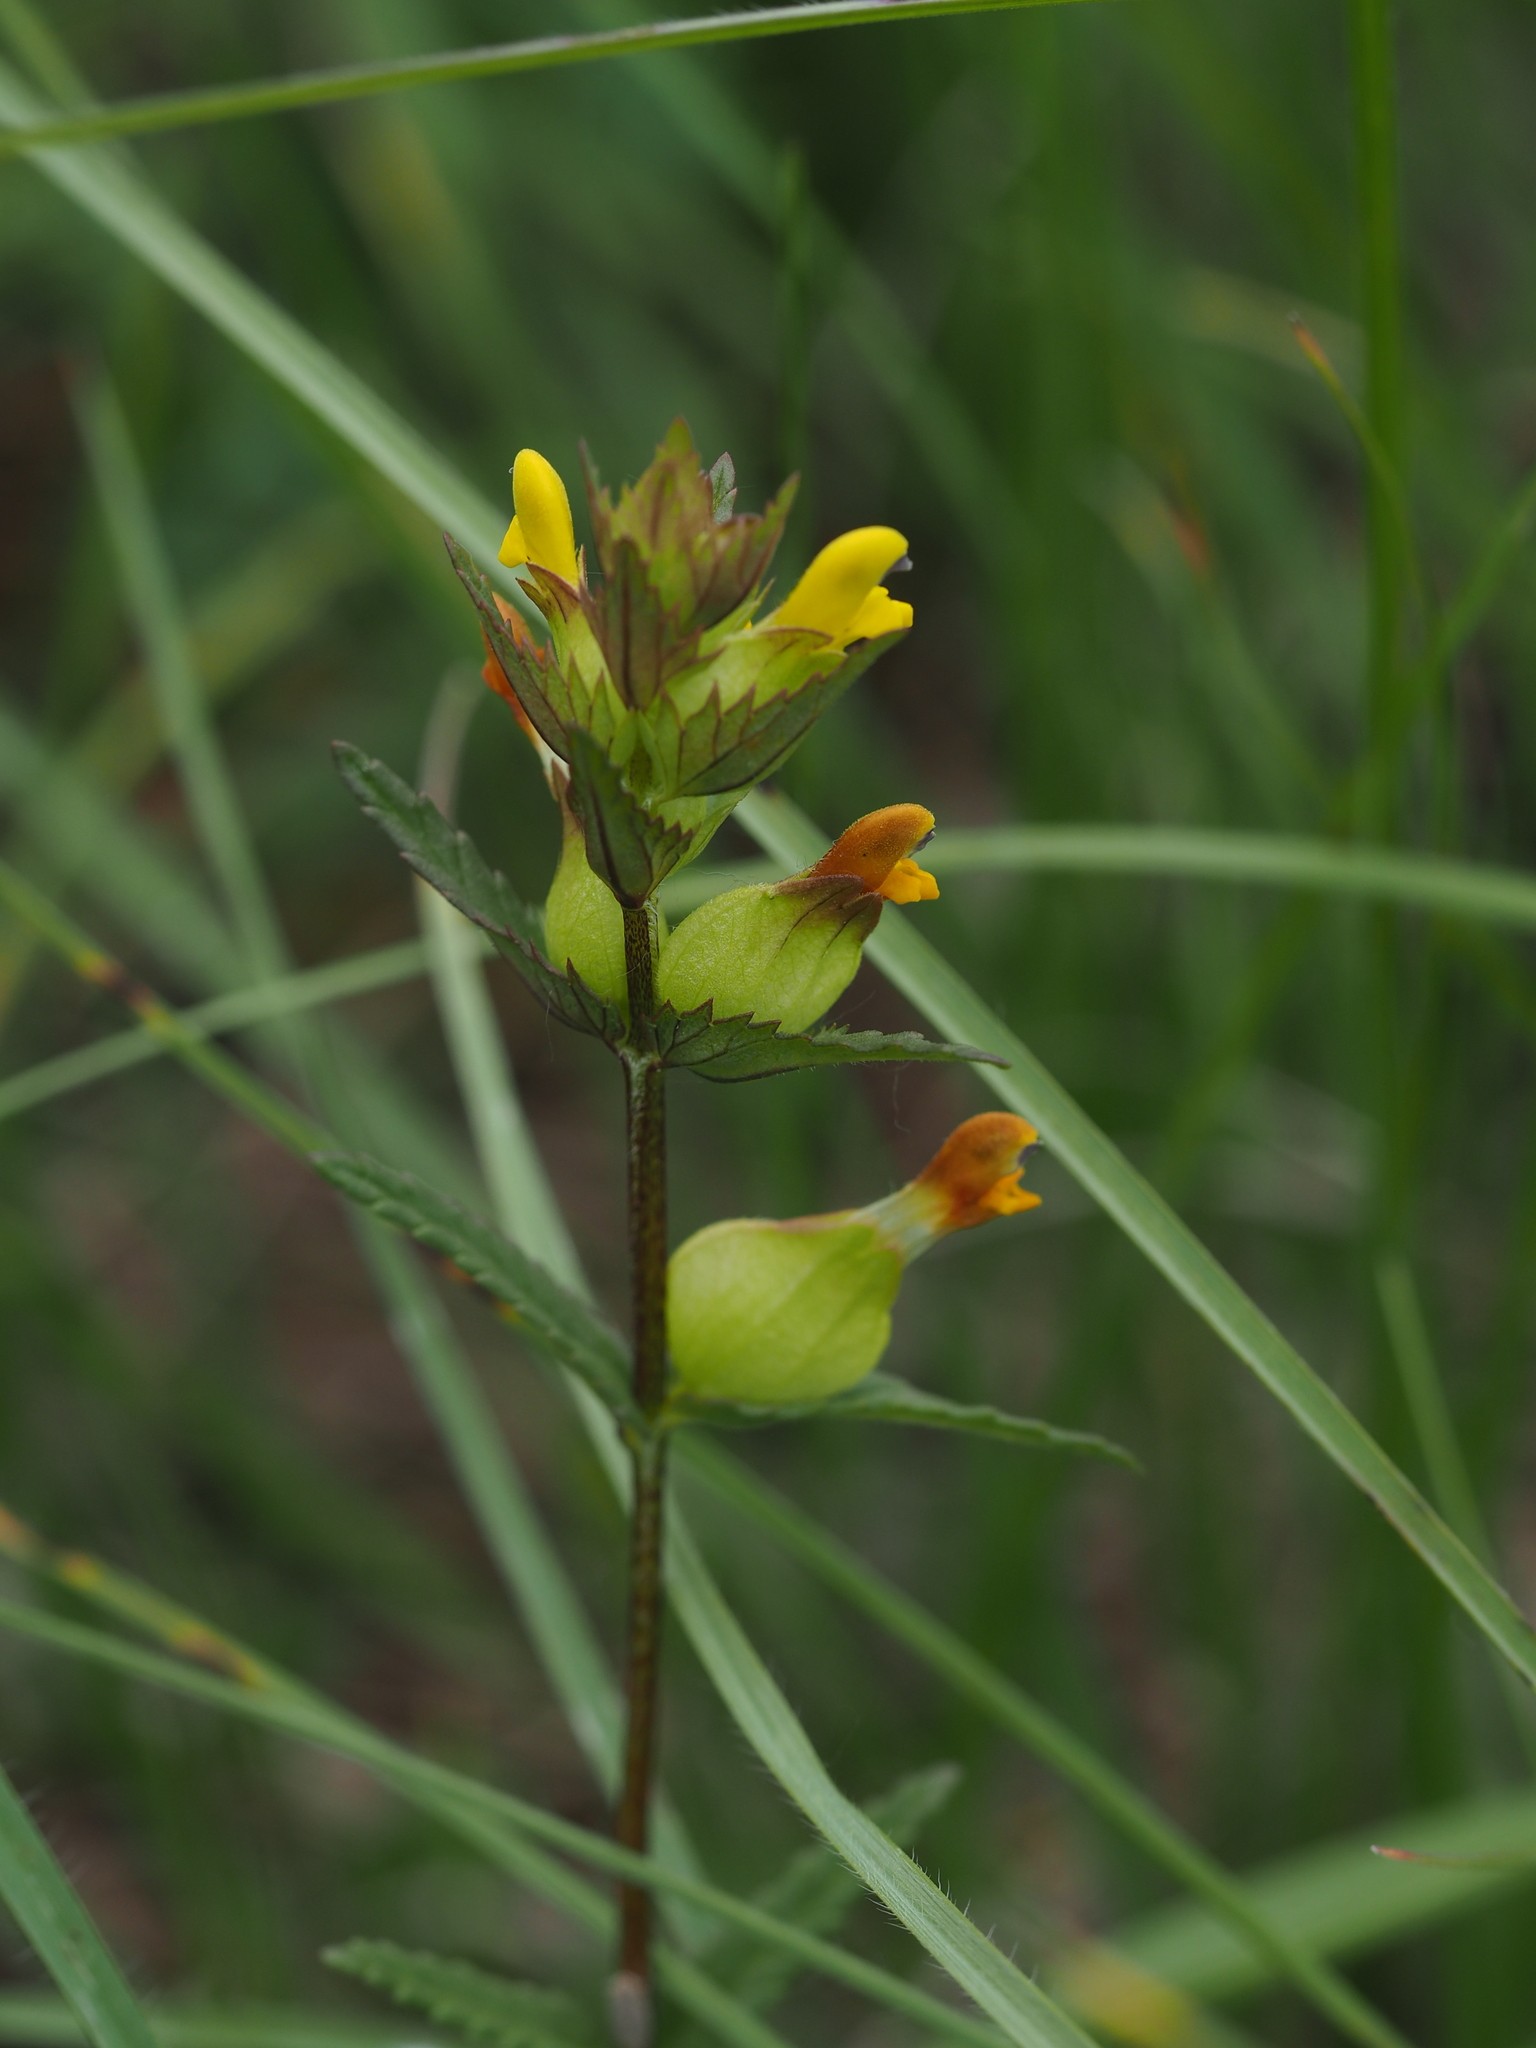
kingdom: Plantae
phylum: Tracheophyta
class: Magnoliopsida
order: Lamiales
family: Orobanchaceae
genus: Rhinanthus
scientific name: Rhinanthus minor
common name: Yellow-rattle
